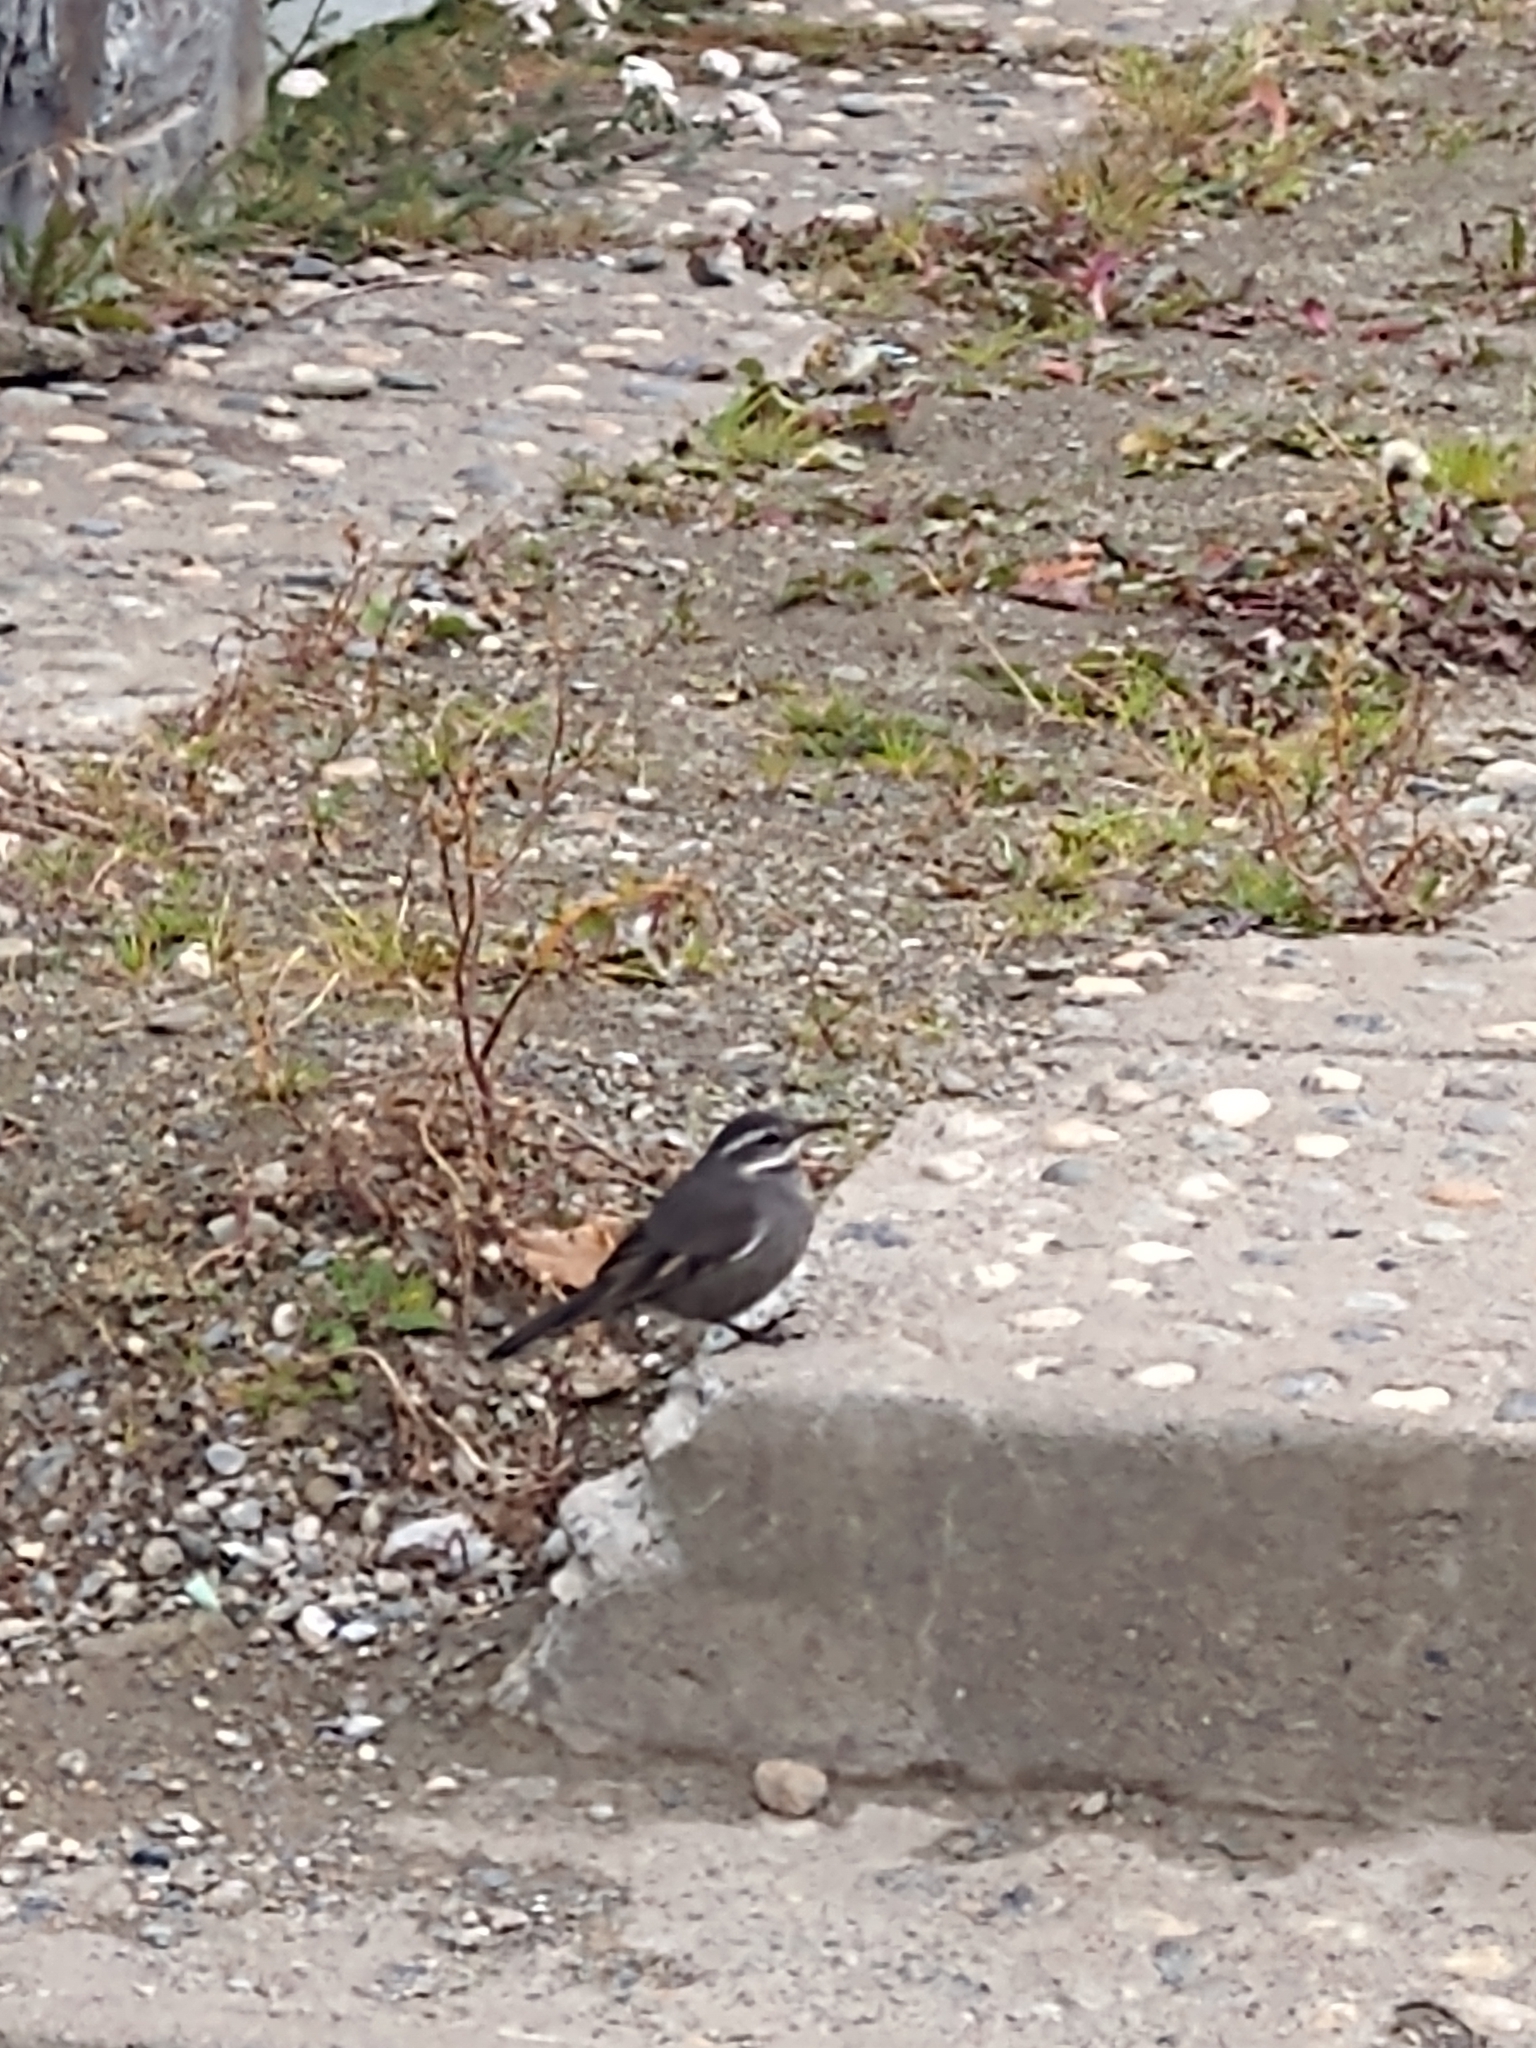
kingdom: Animalia
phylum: Chordata
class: Aves
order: Passeriformes
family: Furnariidae
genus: Cinclodes
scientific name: Cinclodes patagonicus
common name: Dark-bellied cinclodes
